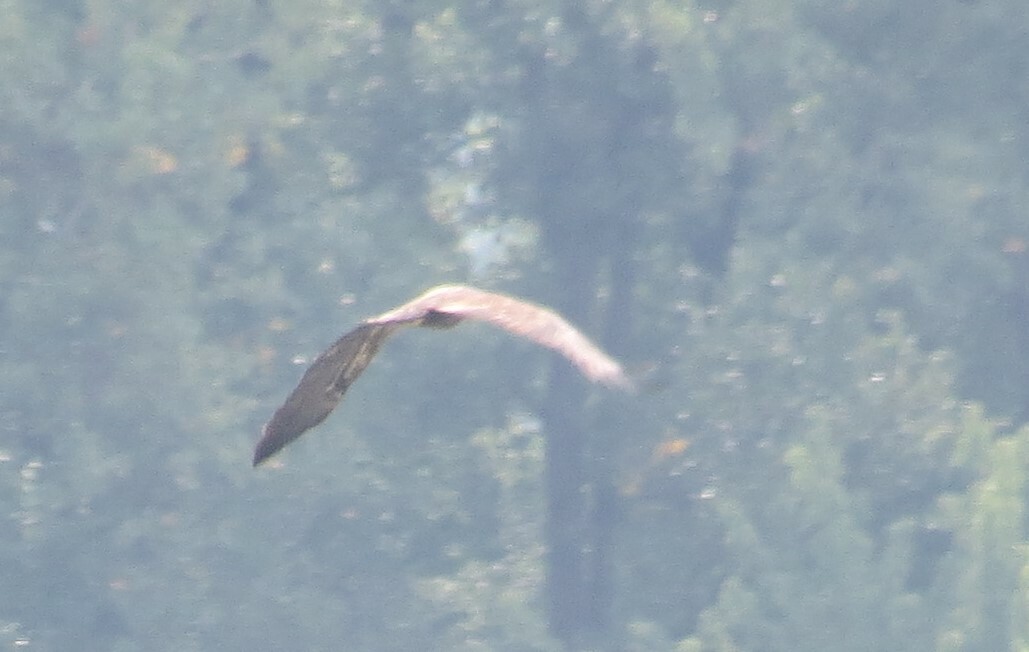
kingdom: Animalia
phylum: Chordata
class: Aves
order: Accipitriformes
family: Accipitridae
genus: Haliaeetus
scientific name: Haliaeetus leucocephalus
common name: Bald eagle
